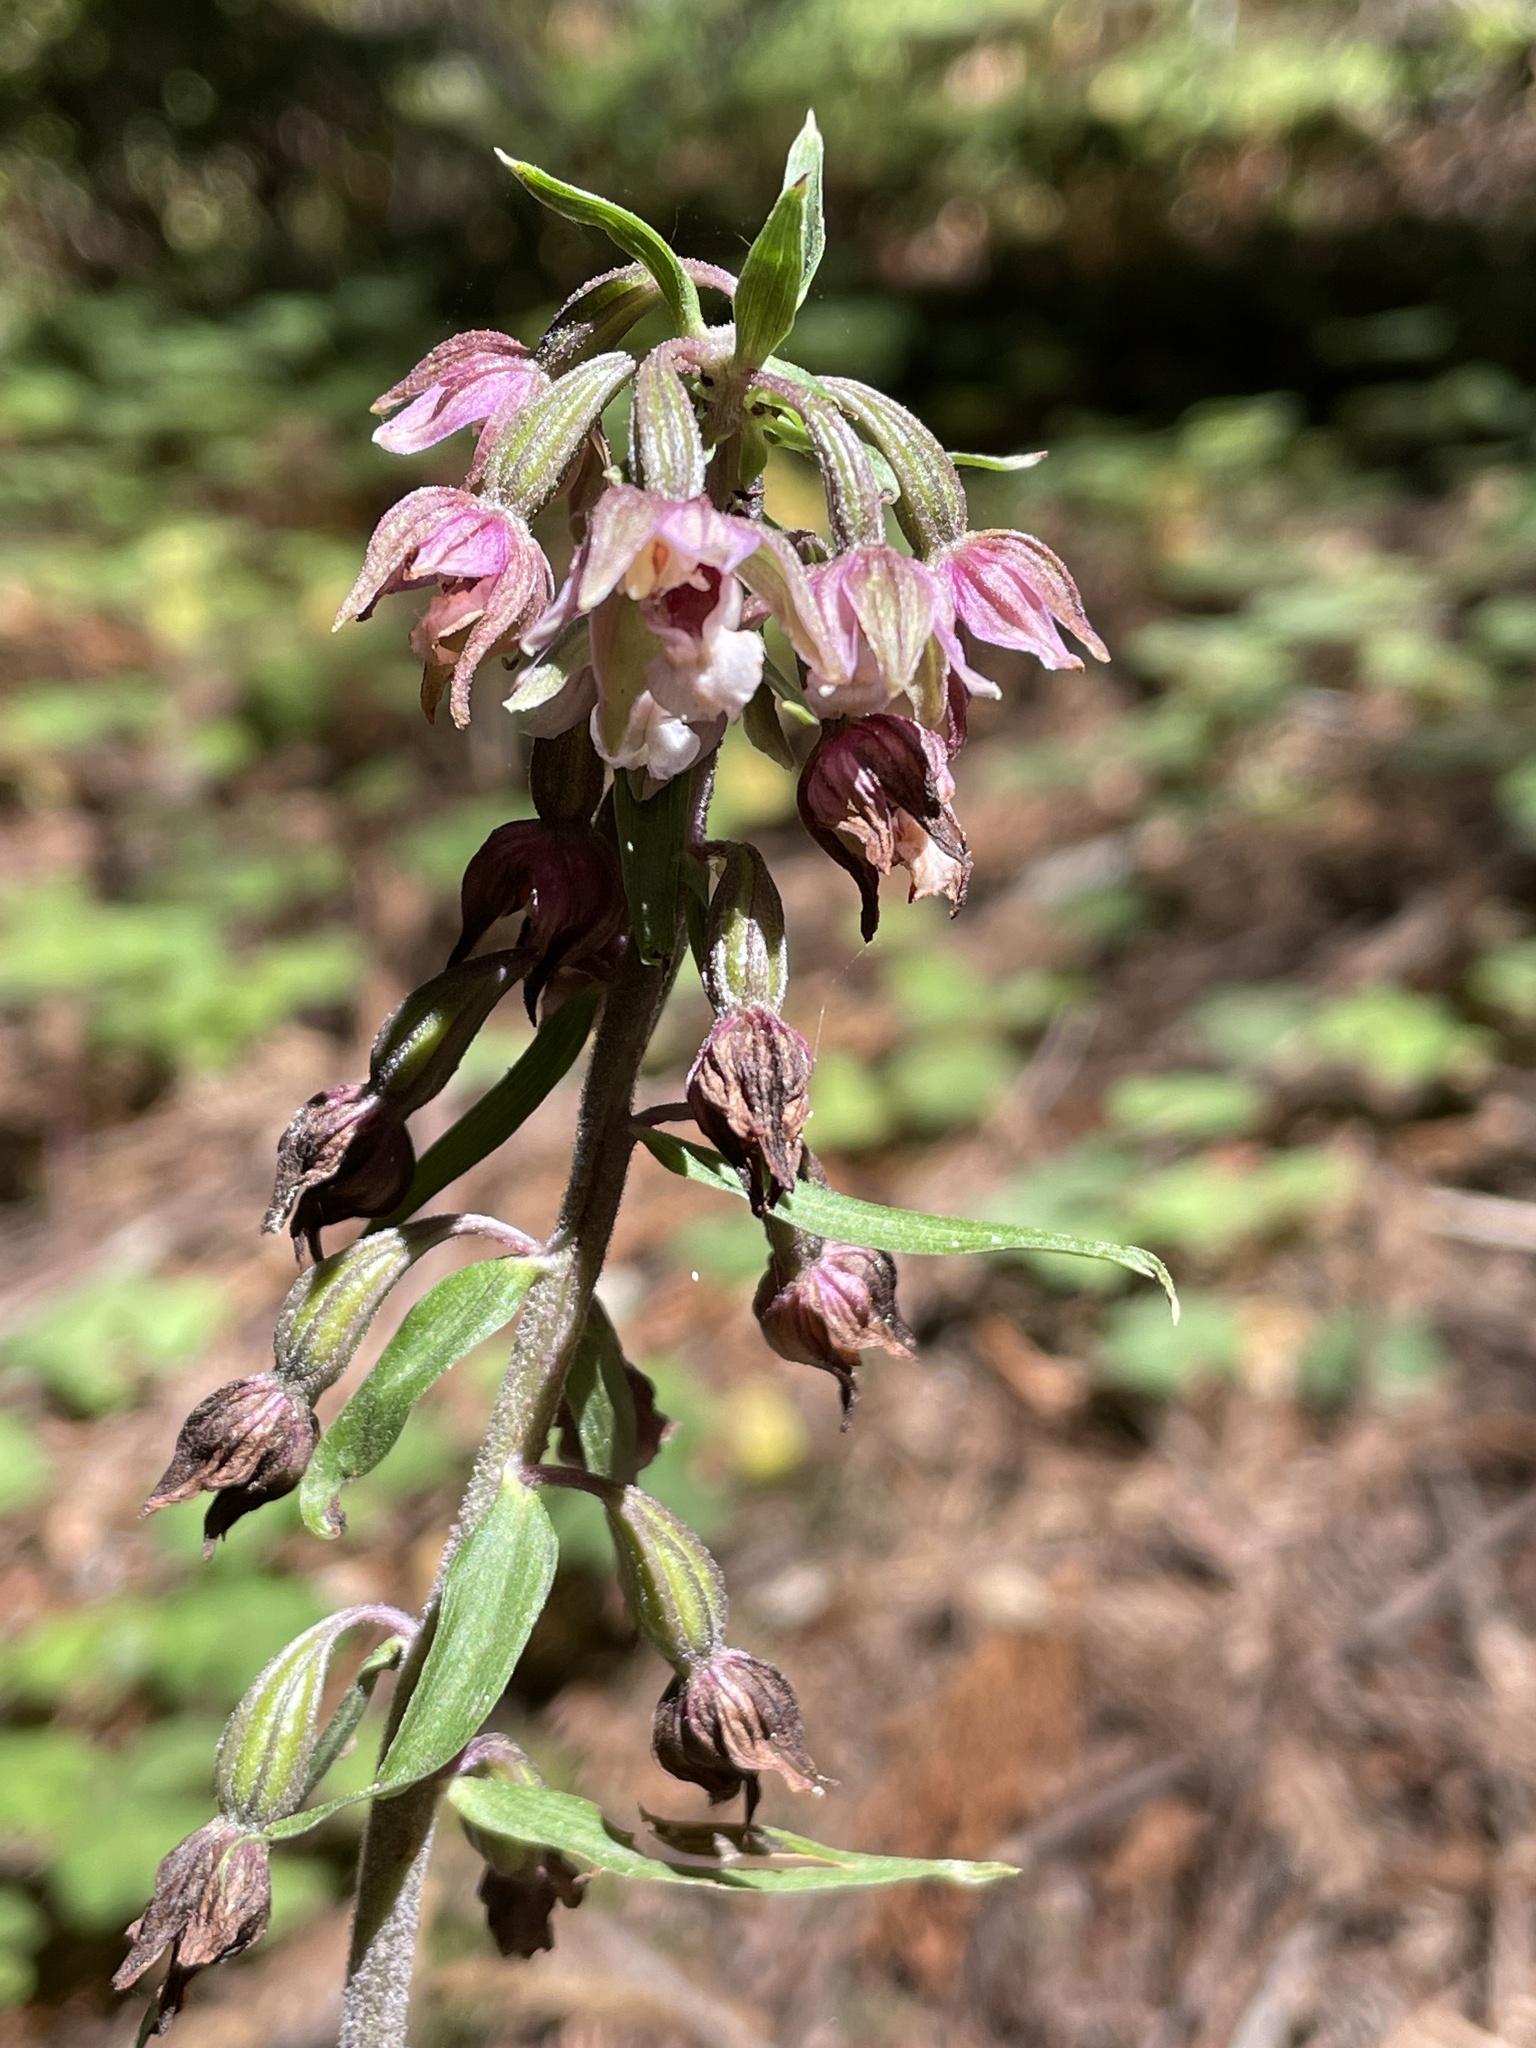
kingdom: Plantae
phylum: Tracheophyta
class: Liliopsida
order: Asparagales
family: Orchidaceae
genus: Epipactis
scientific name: Epipactis helleborine
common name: Broad-leaved helleborine
